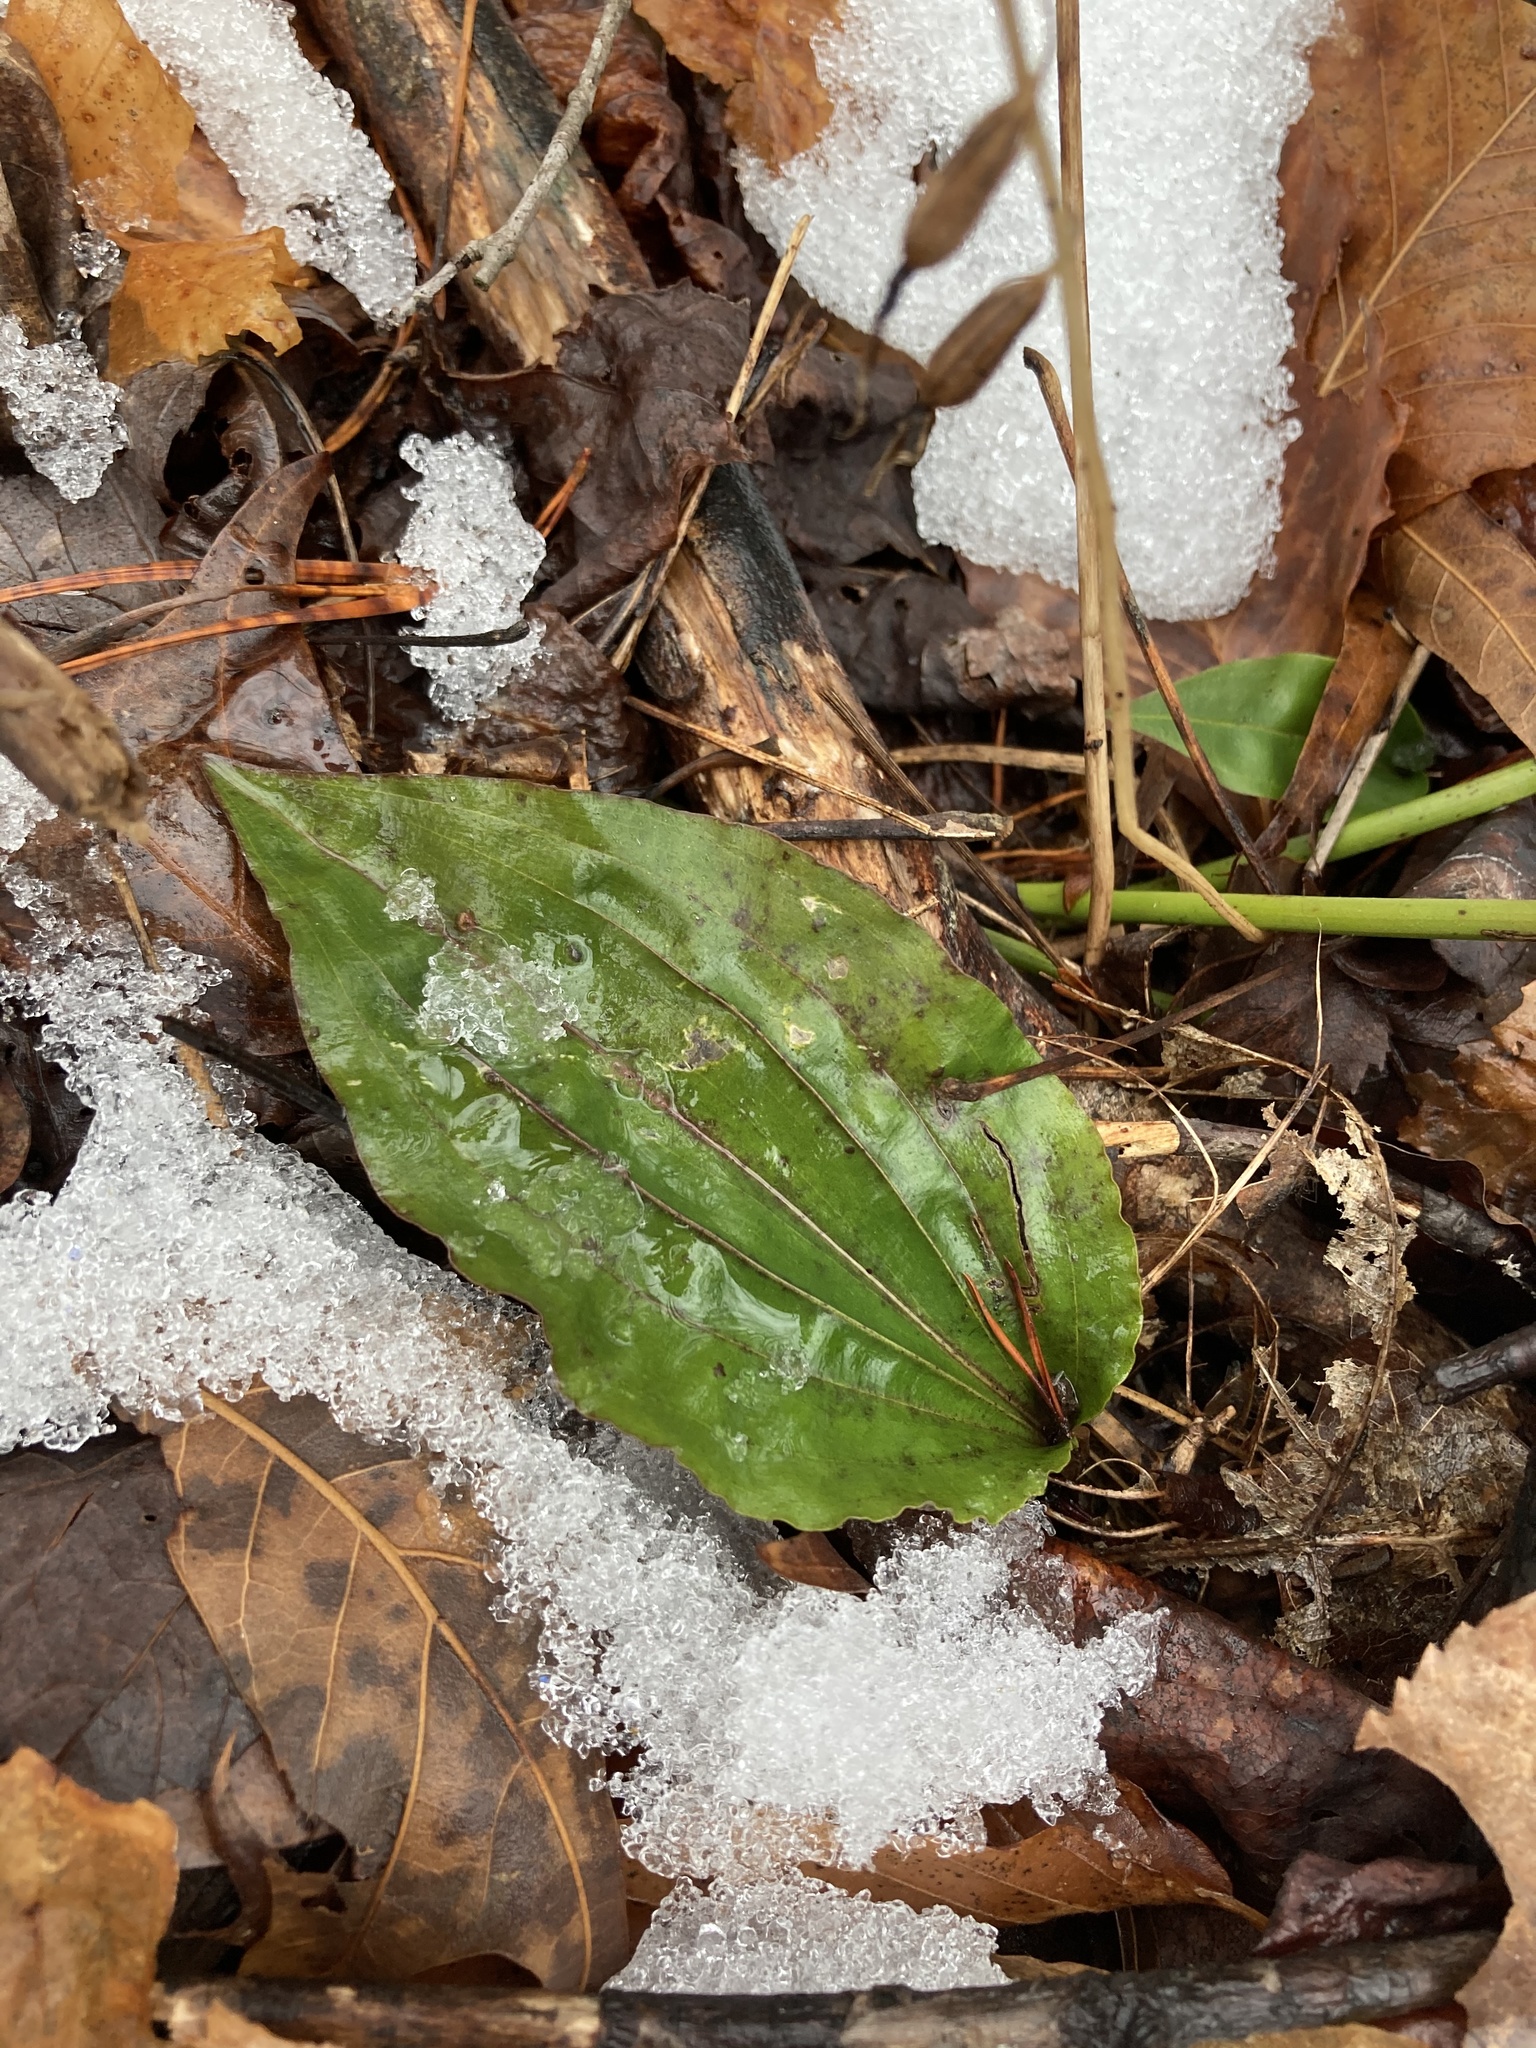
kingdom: Plantae
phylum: Tracheophyta
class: Liliopsida
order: Asparagales
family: Orchidaceae
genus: Tipularia
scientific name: Tipularia discolor
